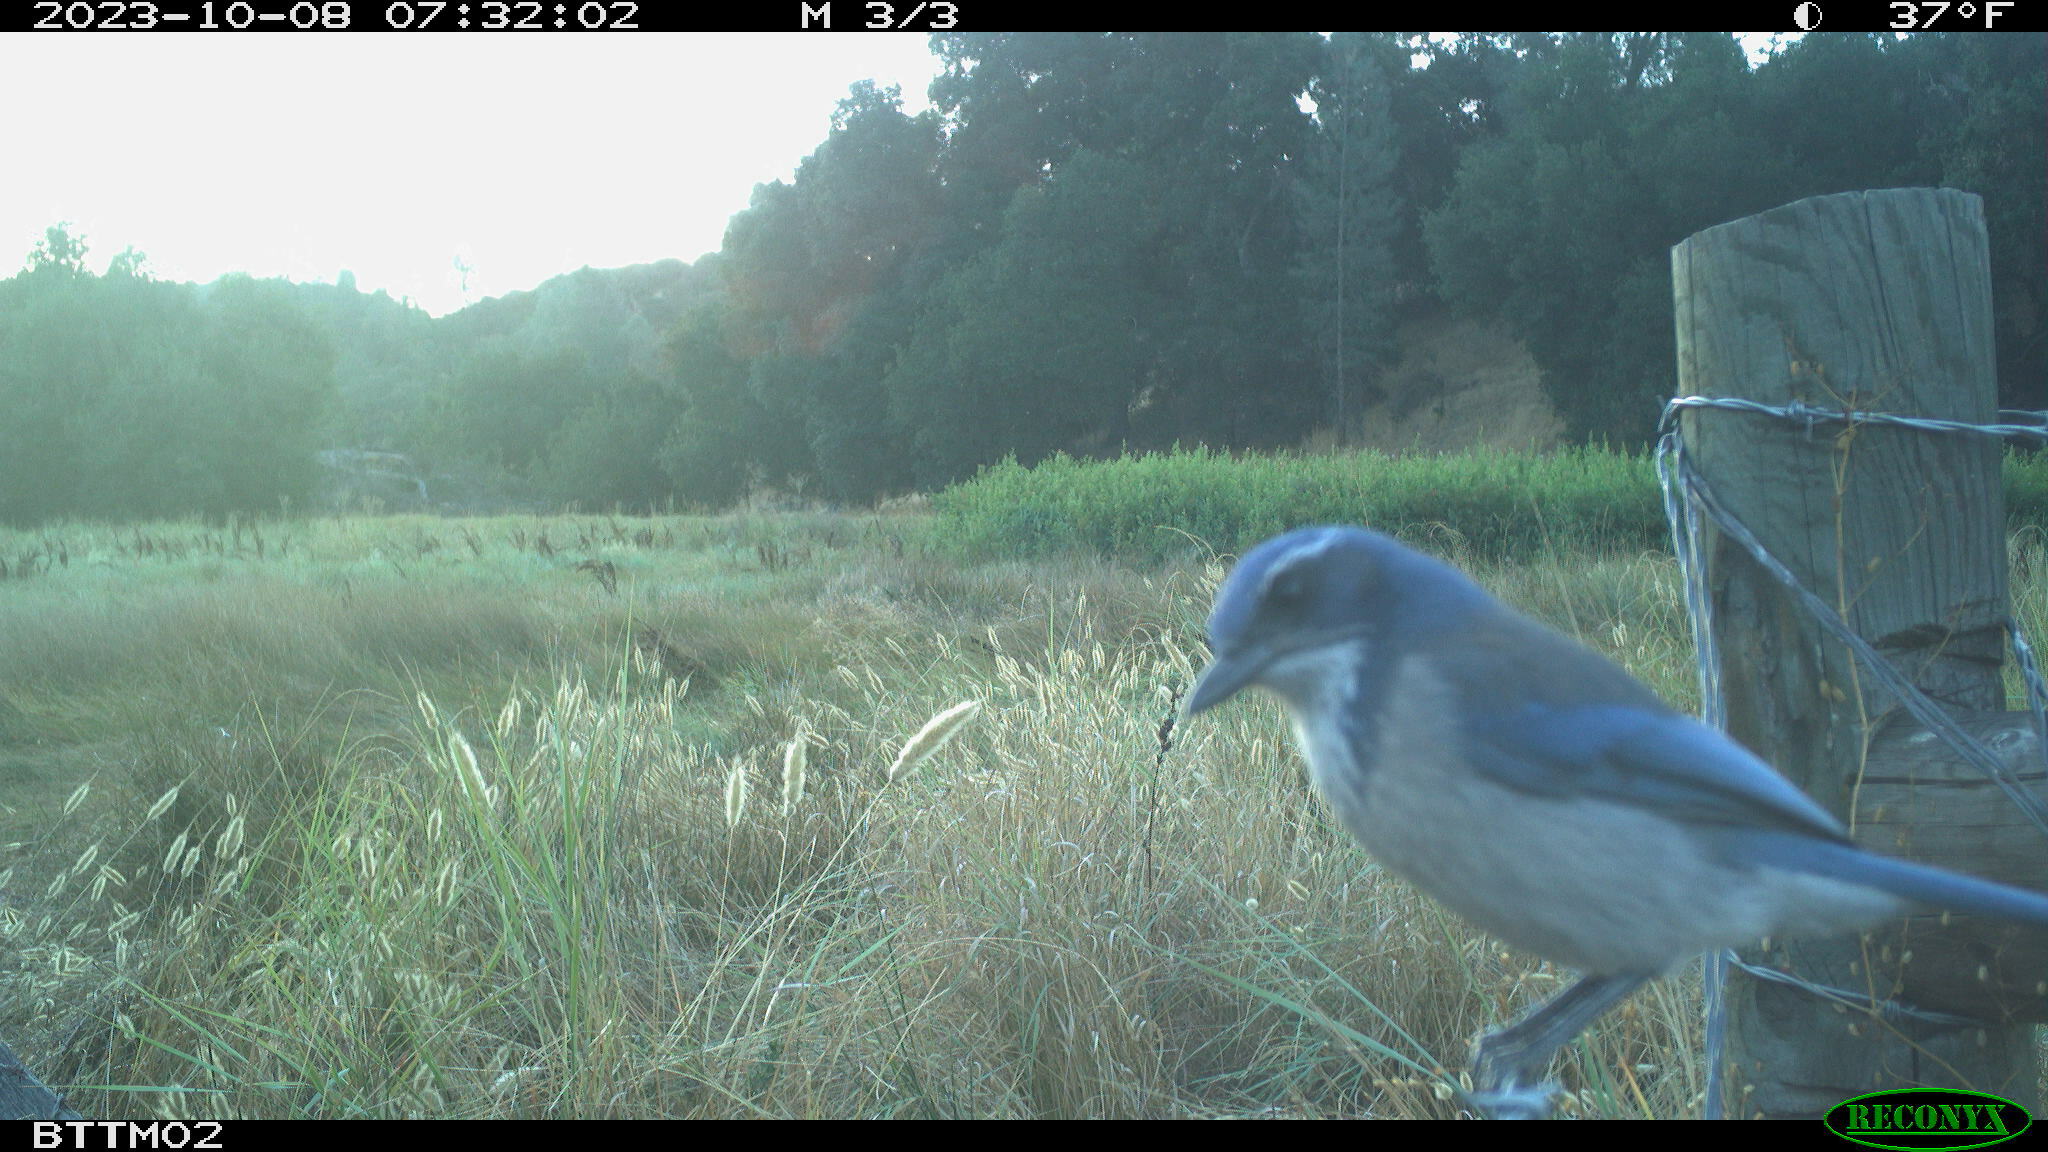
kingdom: Animalia
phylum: Chordata
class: Aves
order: Passeriformes
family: Corvidae
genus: Aphelocoma
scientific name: Aphelocoma californica
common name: California scrub-jay
